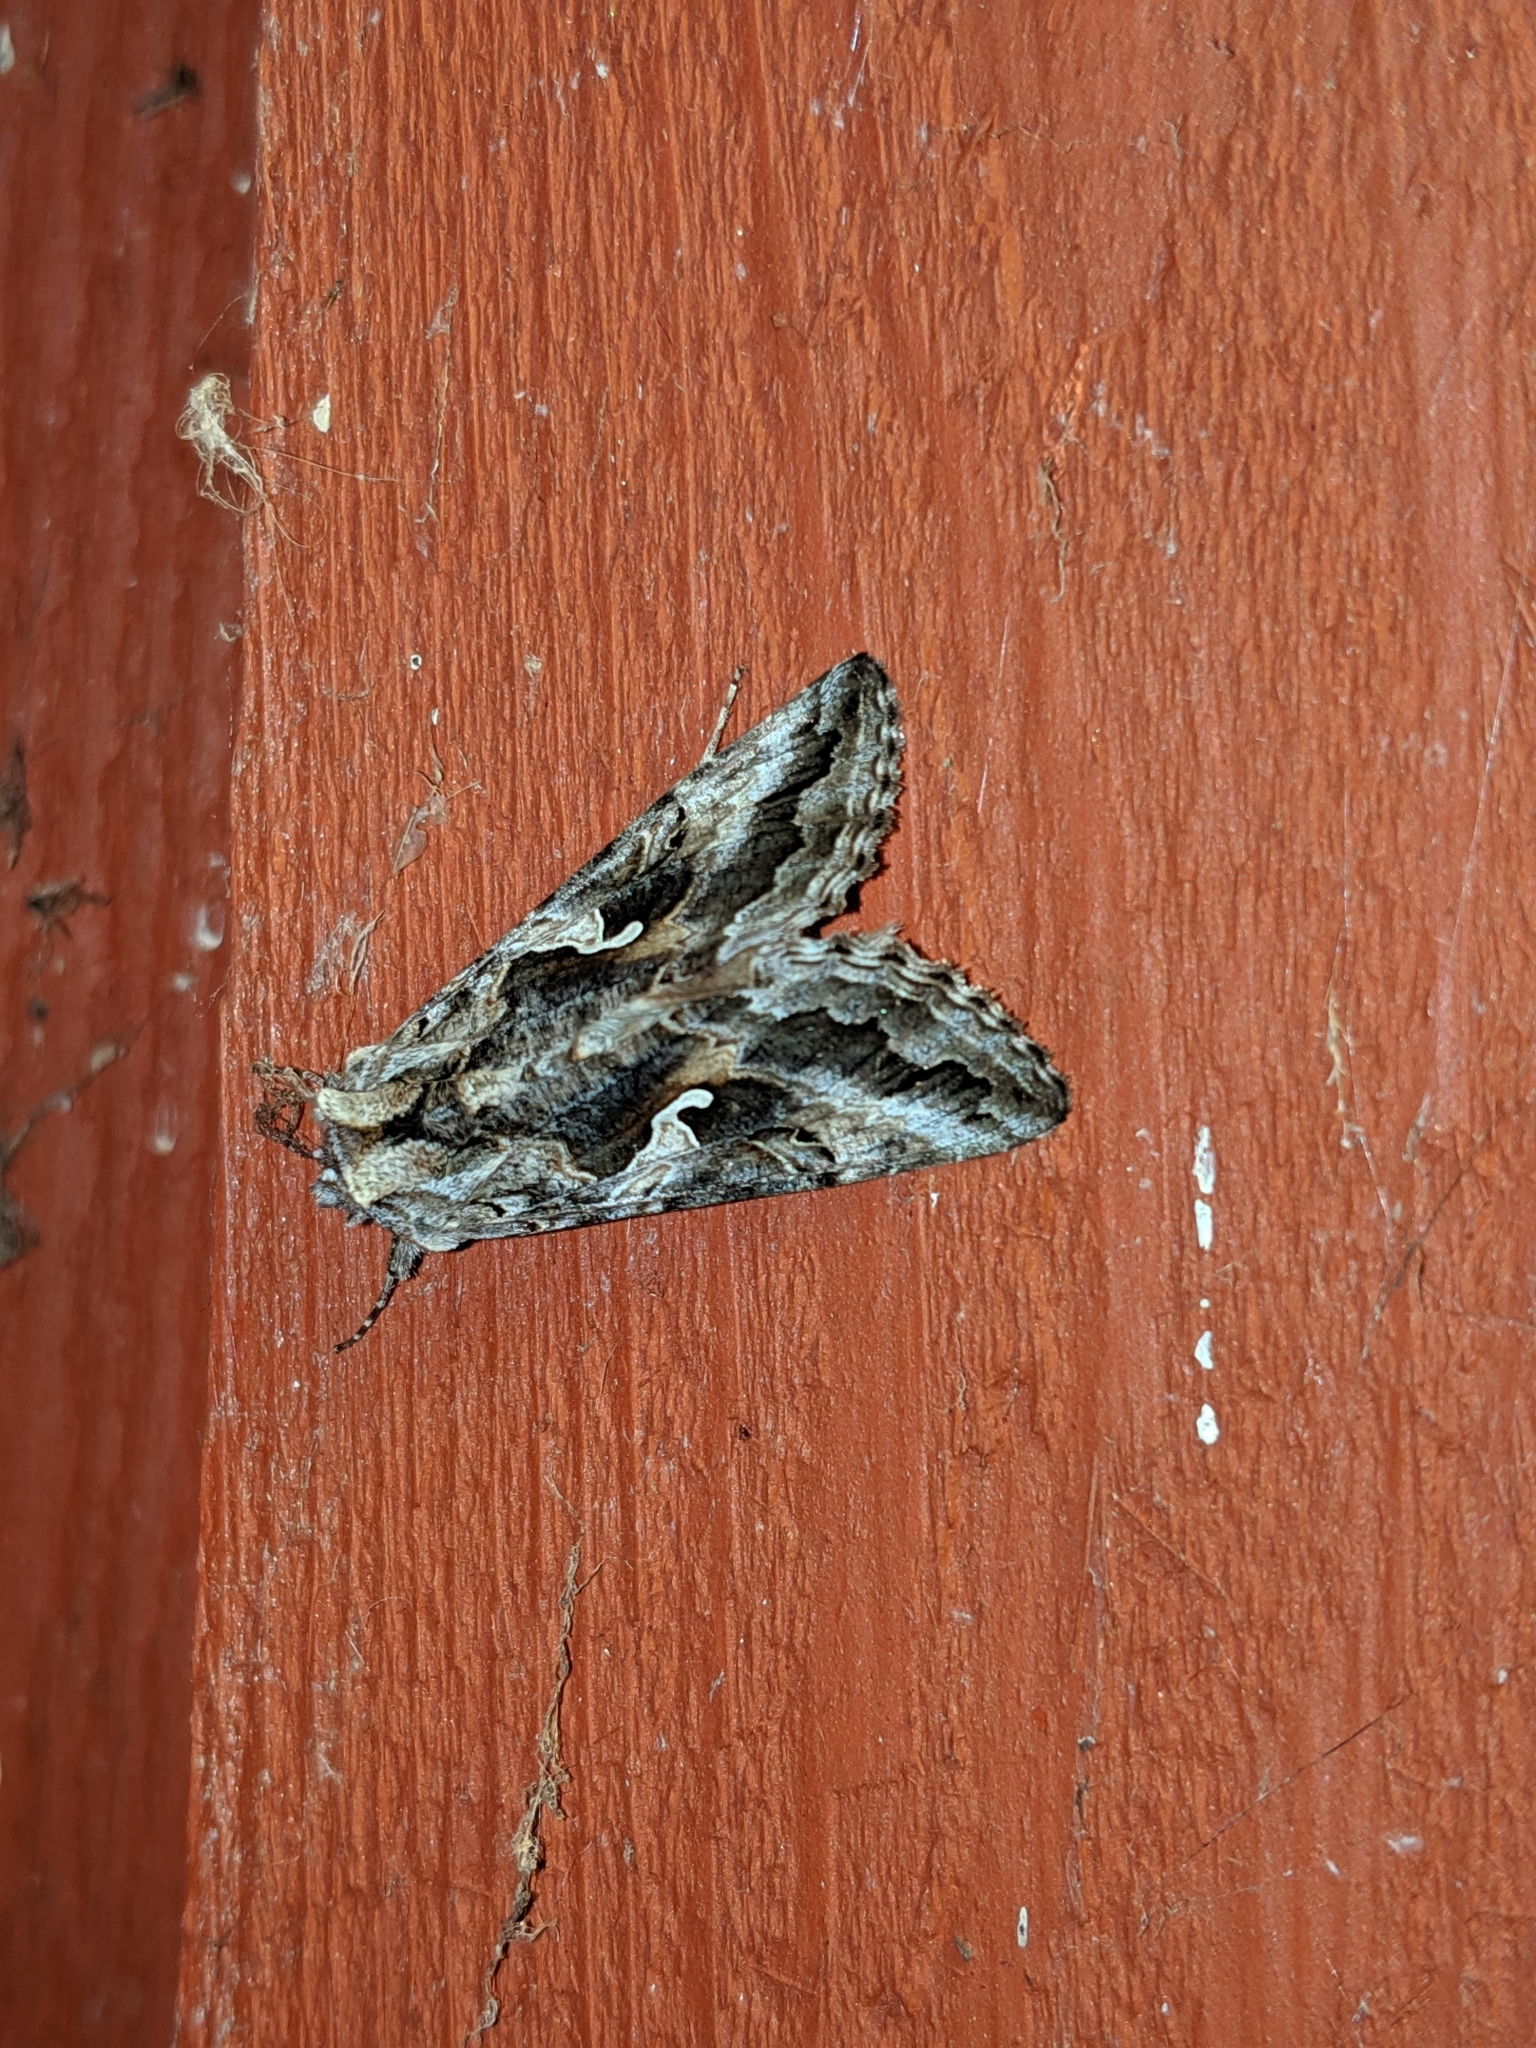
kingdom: Animalia
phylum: Arthropoda
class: Insecta
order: Lepidoptera
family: Noctuidae
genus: Autographa
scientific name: Autographa californica
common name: Alfalfa looper
